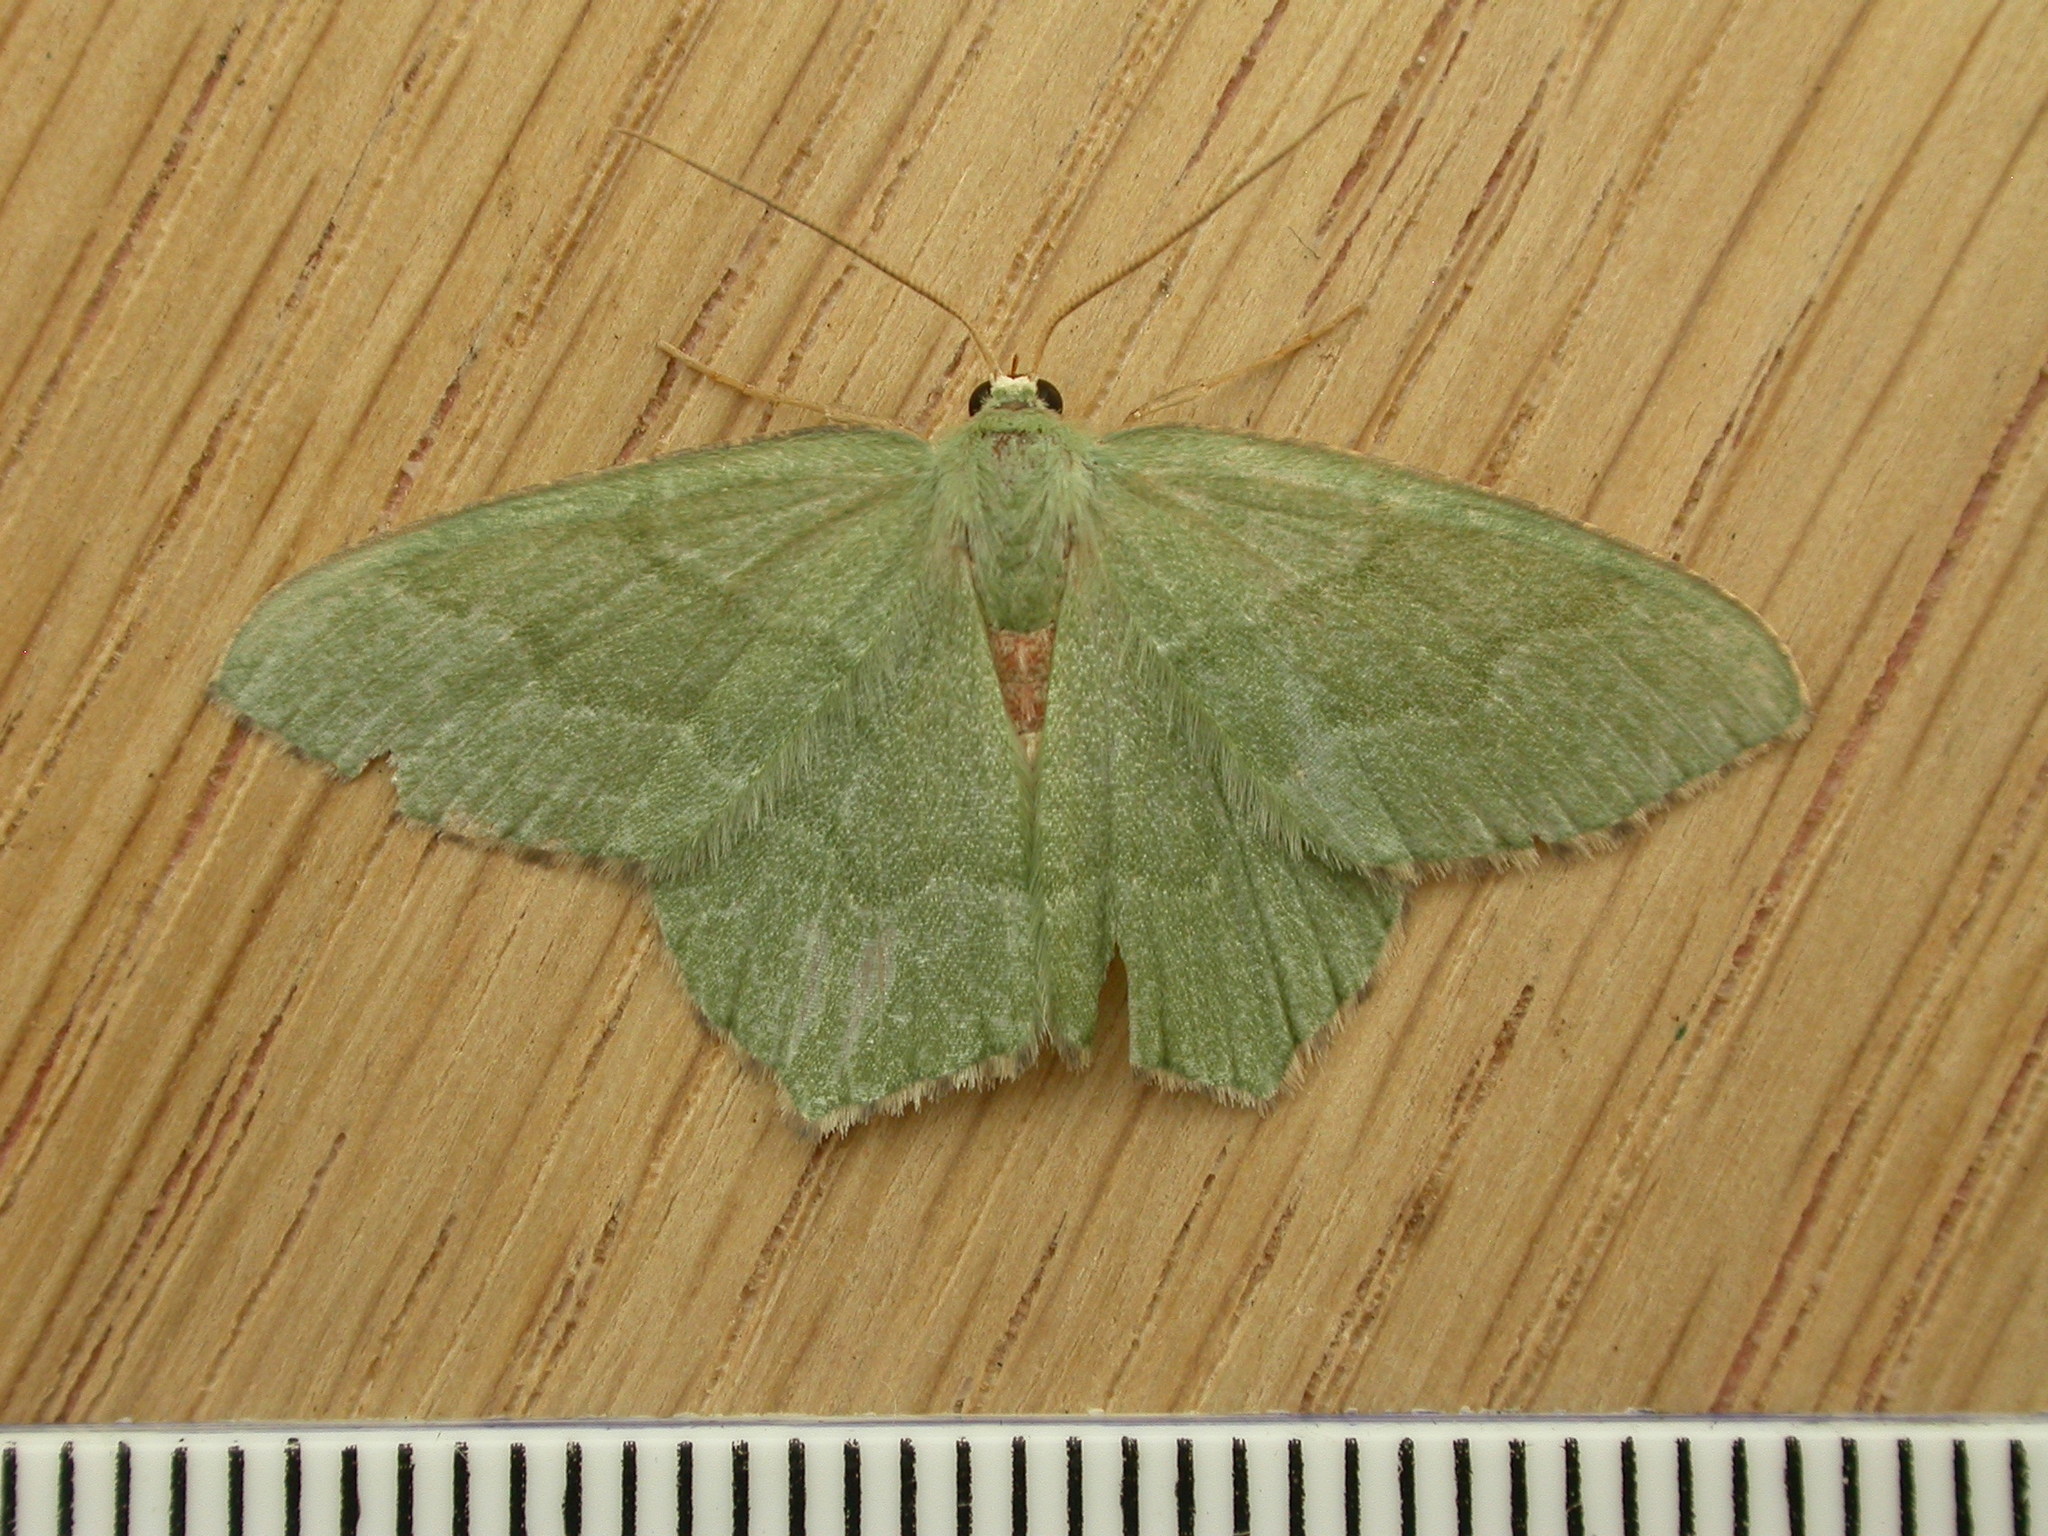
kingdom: Animalia
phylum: Arthropoda
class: Insecta
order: Lepidoptera
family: Geometridae
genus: Hemithea
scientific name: Hemithea aestivaria
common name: Common emerald
